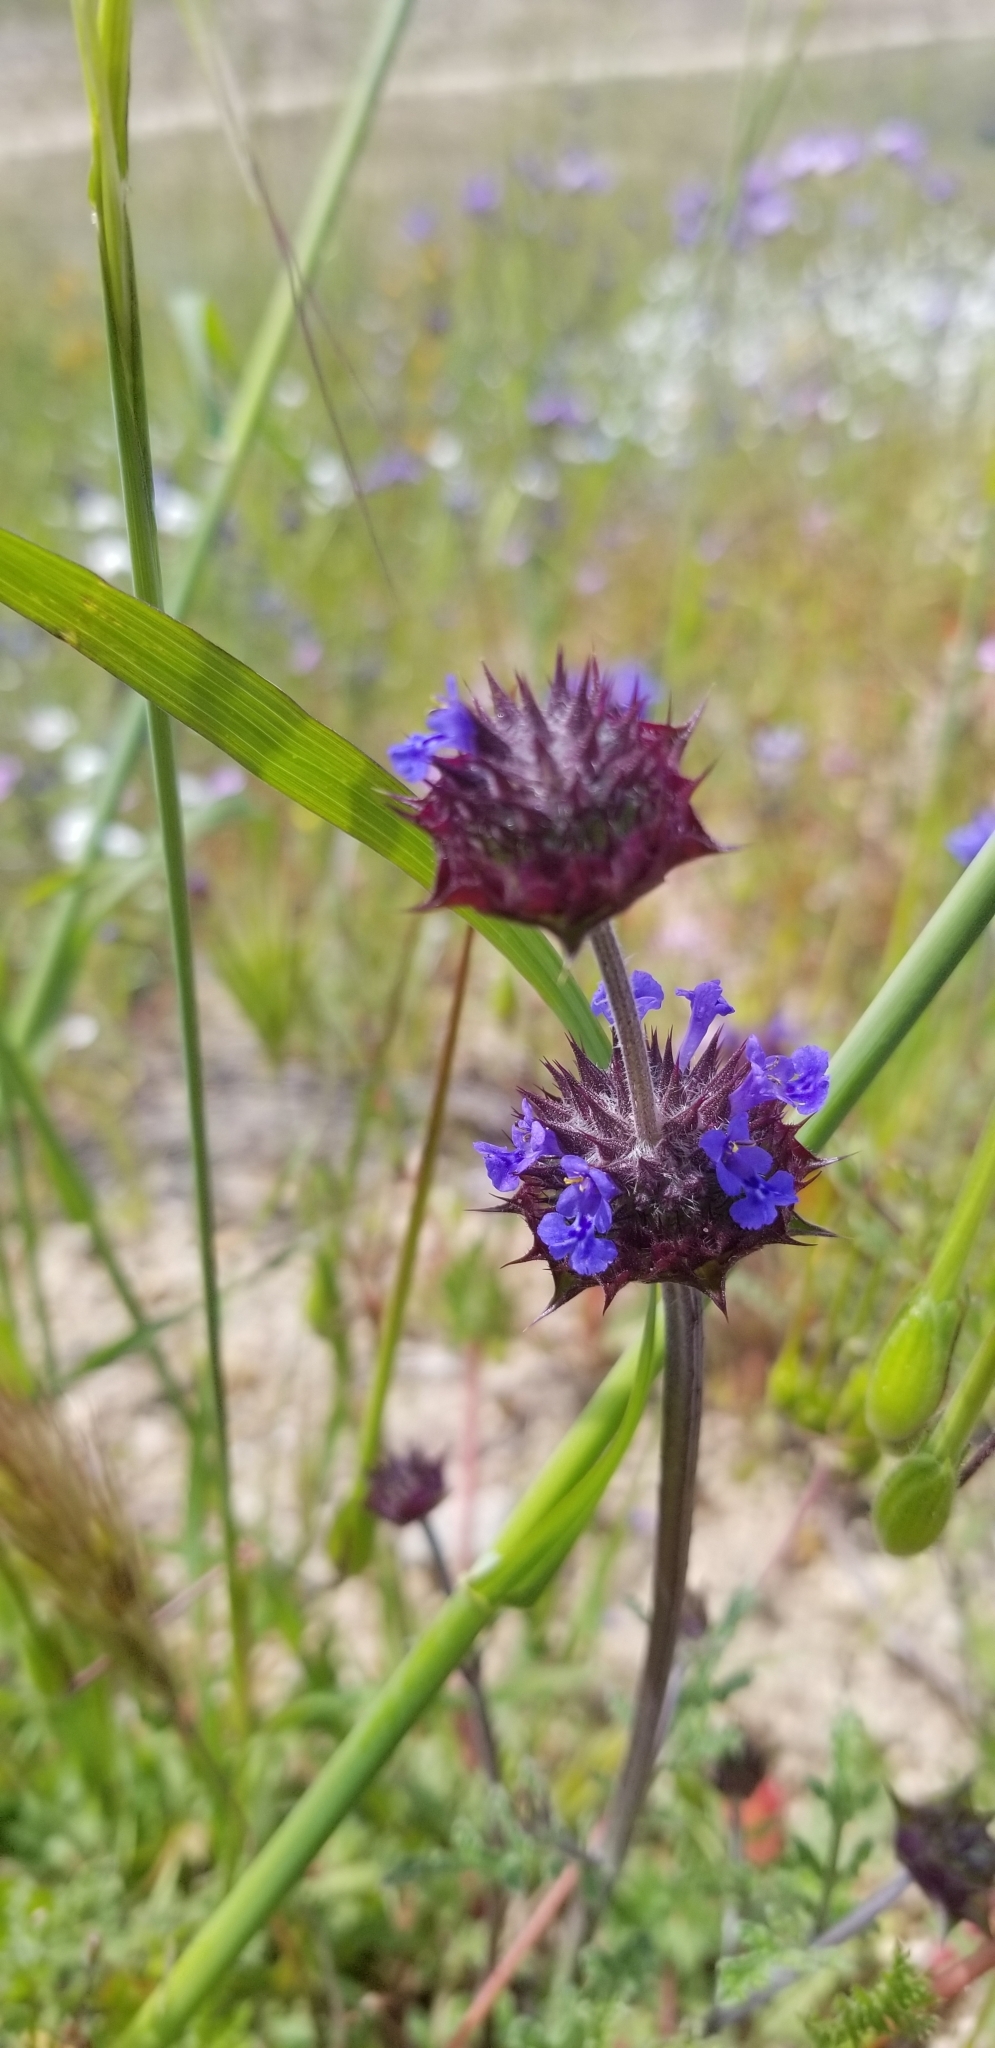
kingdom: Plantae
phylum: Tracheophyta
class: Magnoliopsida
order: Lamiales
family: Lamiaceae
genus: Salvia
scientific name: Salvia columbariae
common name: Chia
